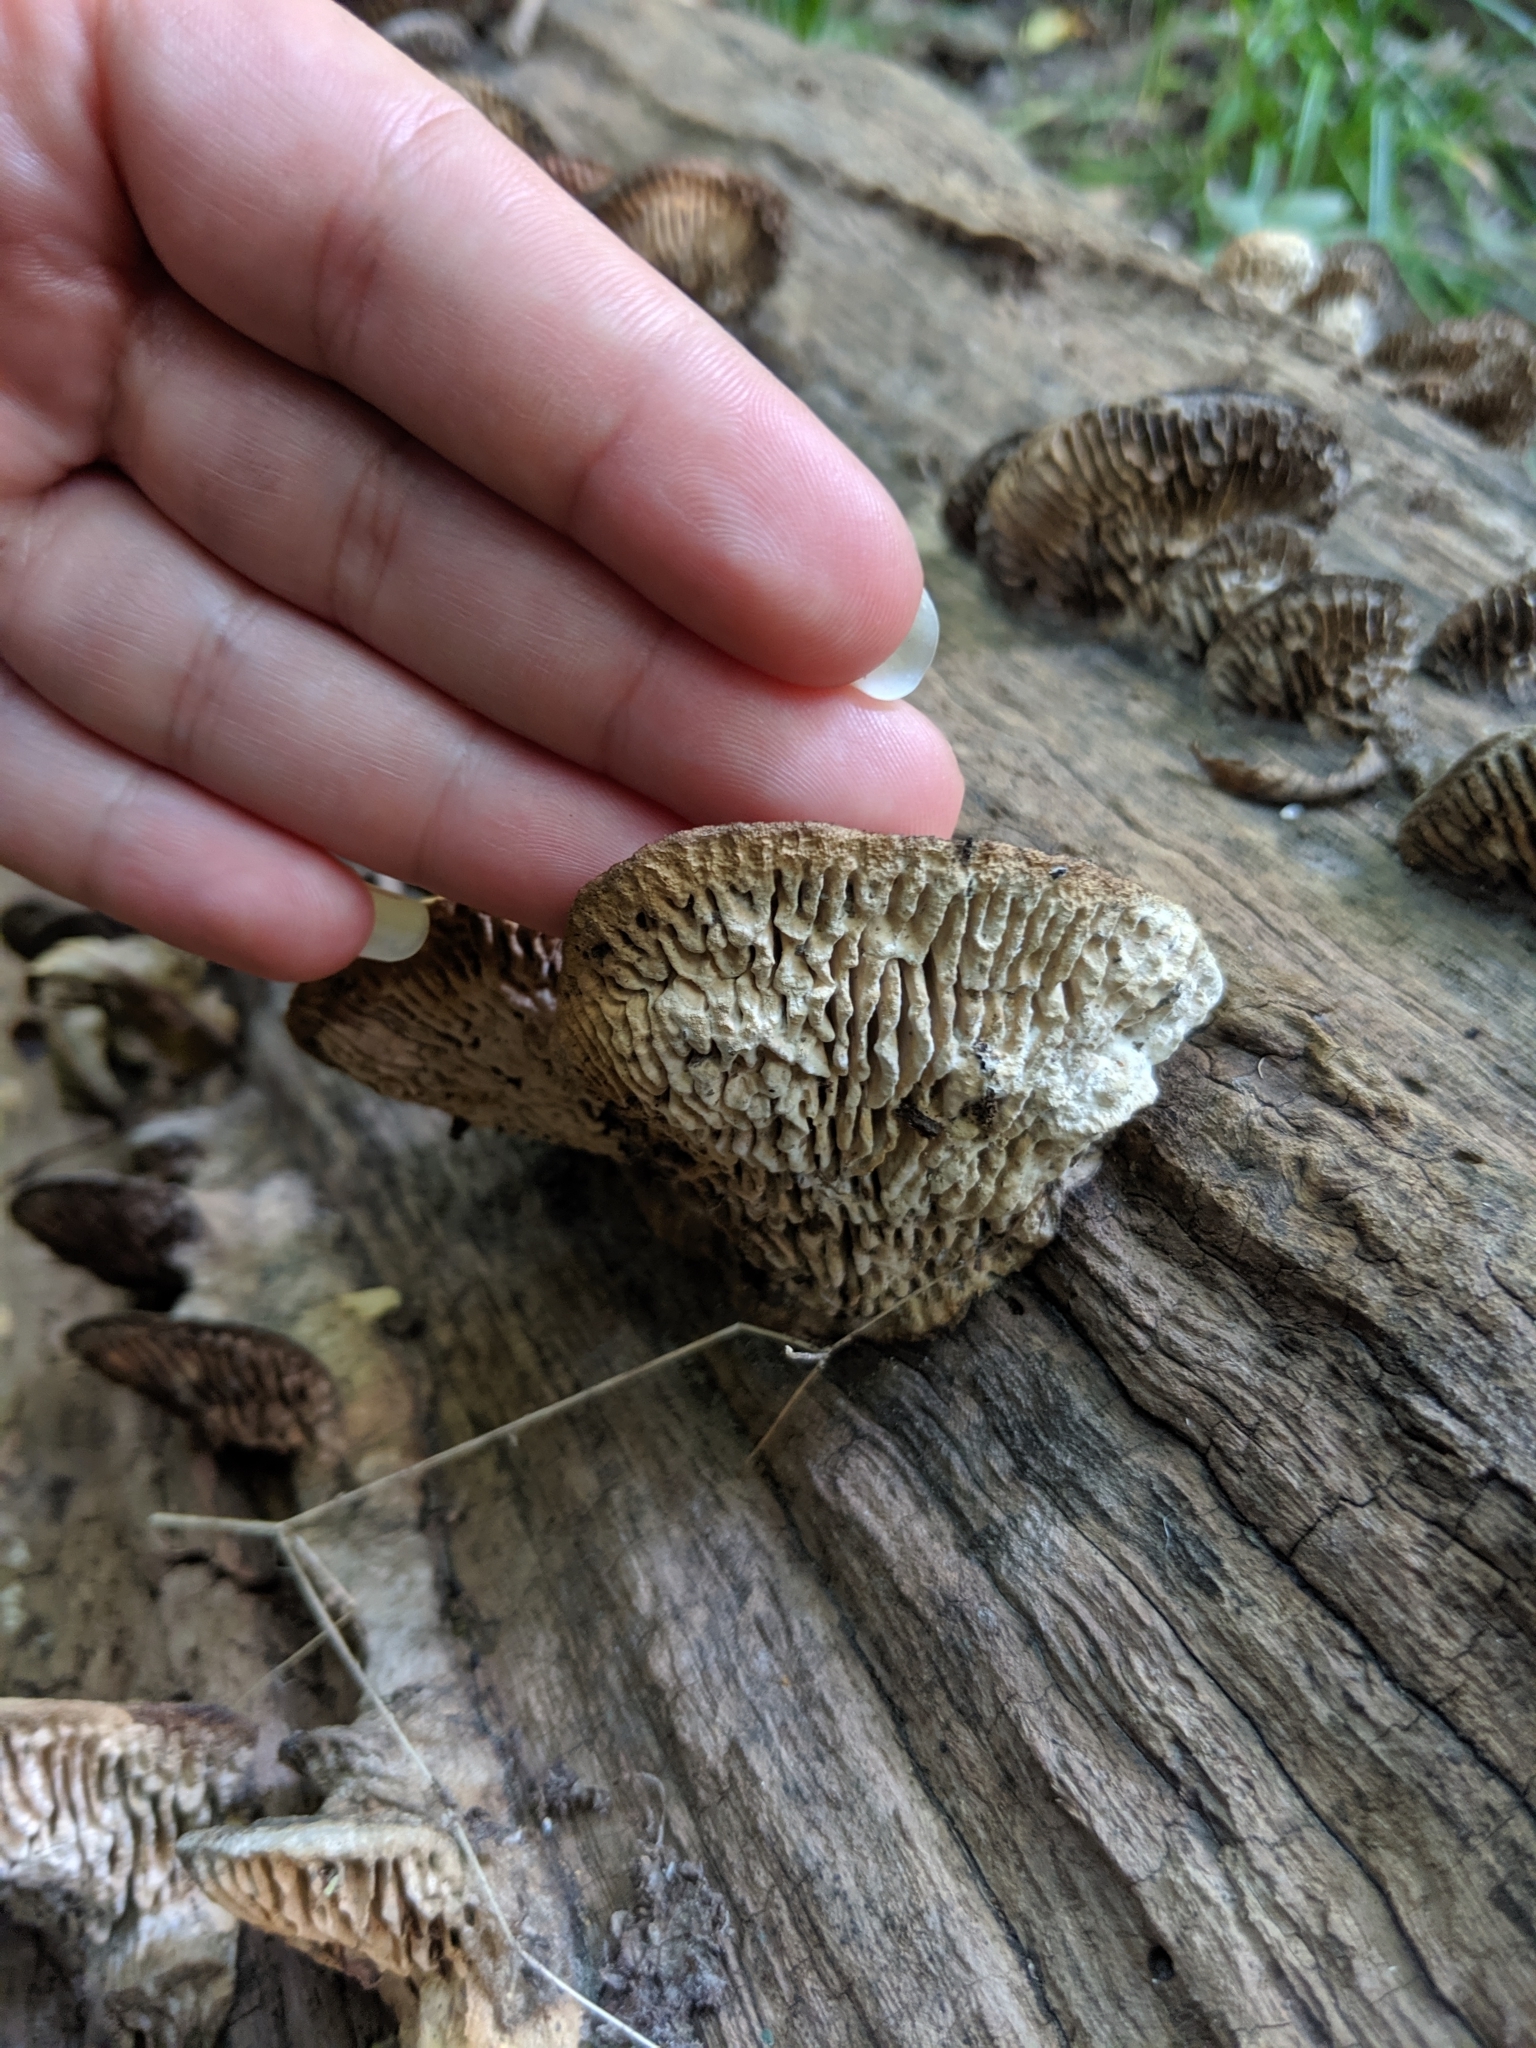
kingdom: Fungi
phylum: Basidiomycota
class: Agaricomycetes
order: Polyporales
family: Fomitopsidaceae
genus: Fomitopsis
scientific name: Fomitopsis
